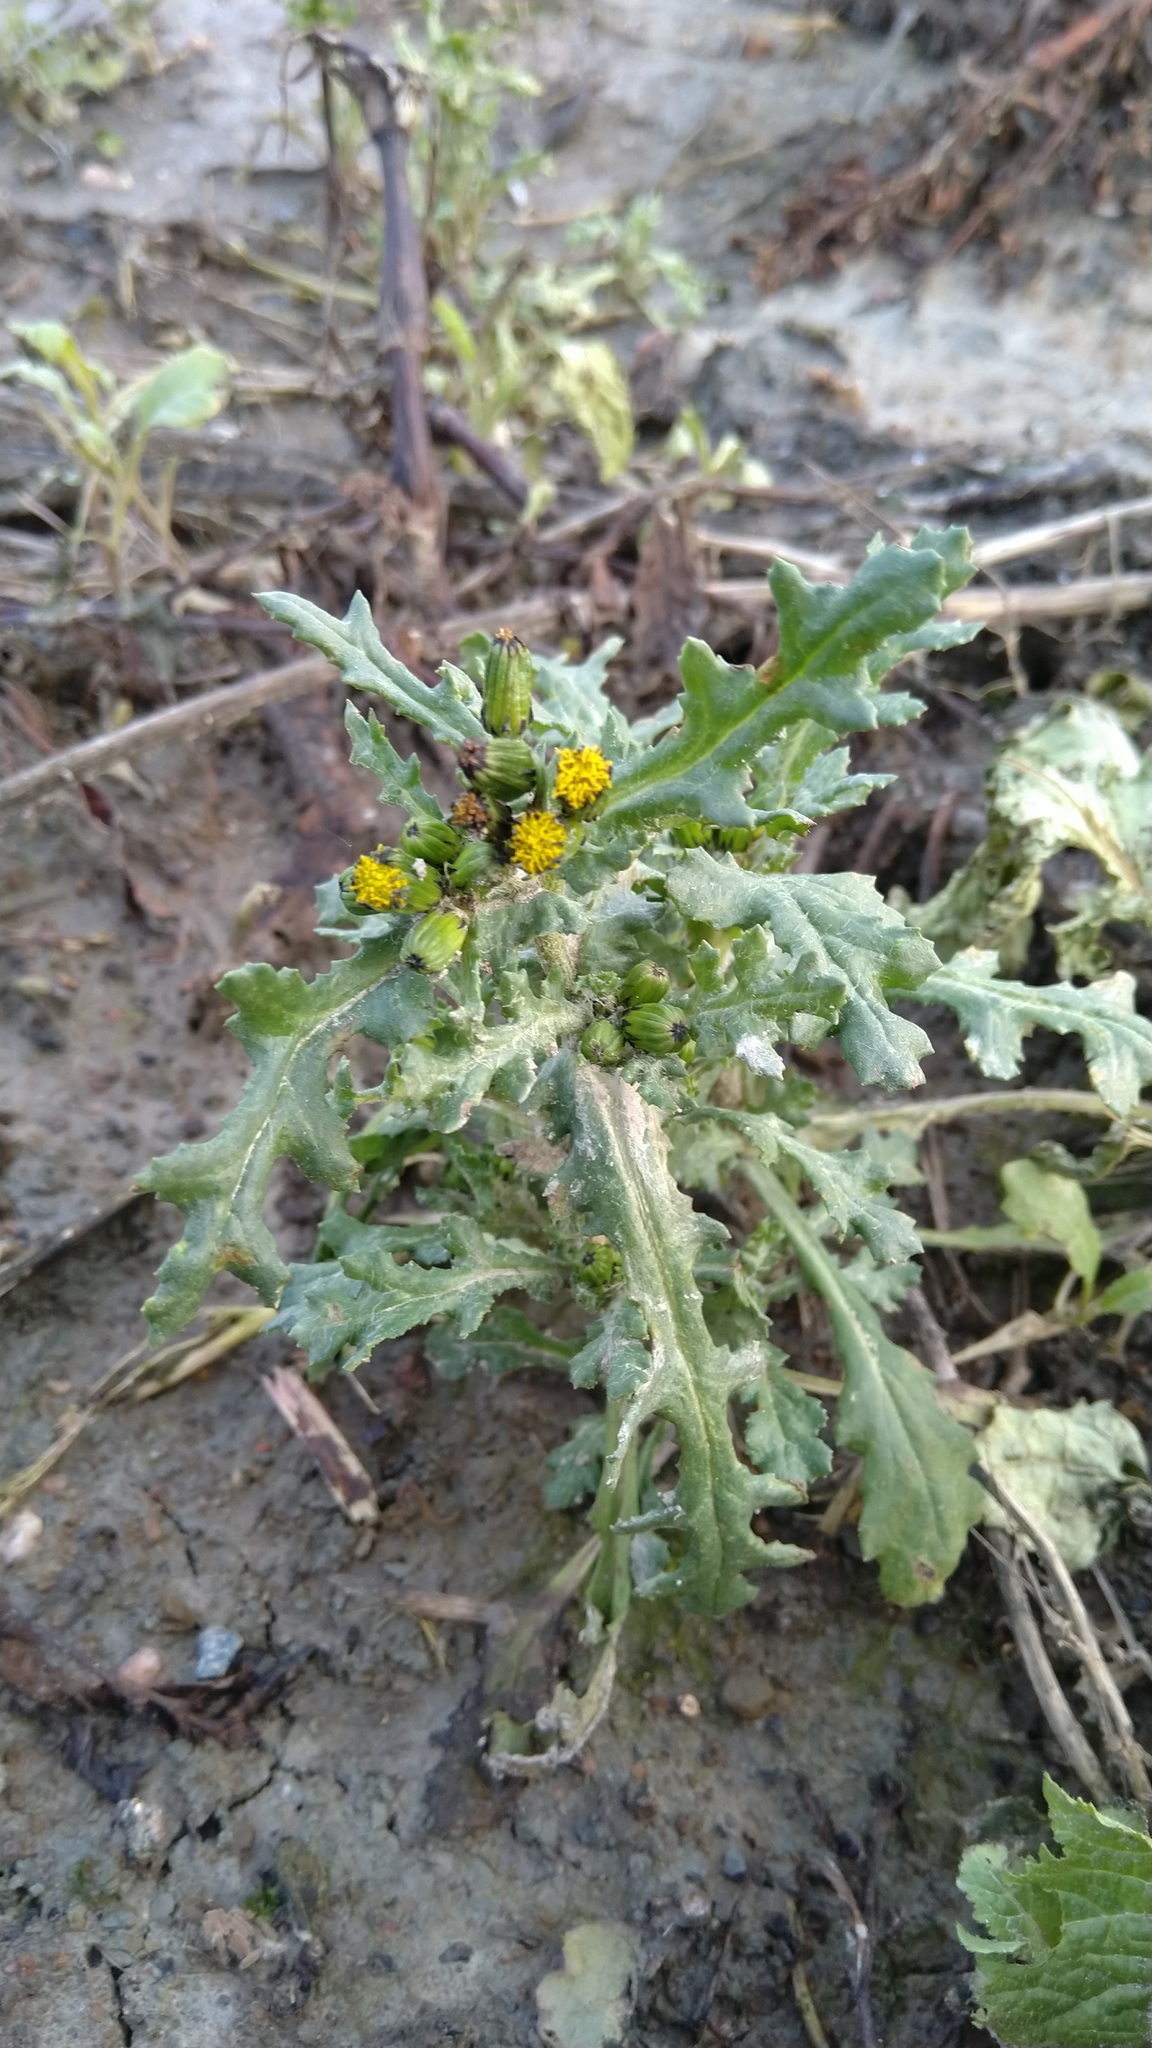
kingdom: Plantae
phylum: Tracheophyta
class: Magnoliopsida
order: Asterales
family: Asteraceae
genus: Senecio
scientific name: Senecio vulgaris
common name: Old-man-in-the-spring
